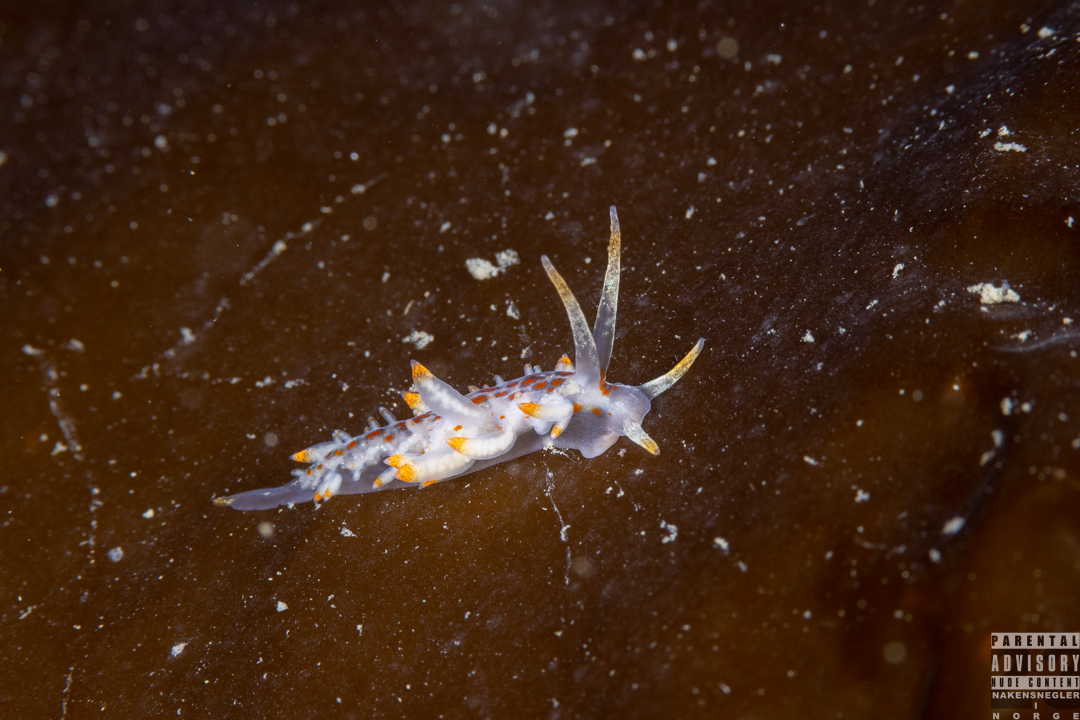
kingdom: Animalia
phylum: Mollusca
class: Gastropoda
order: Nudibranchia
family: Eubranchidae
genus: Amphorina
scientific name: Amphorina farrani
